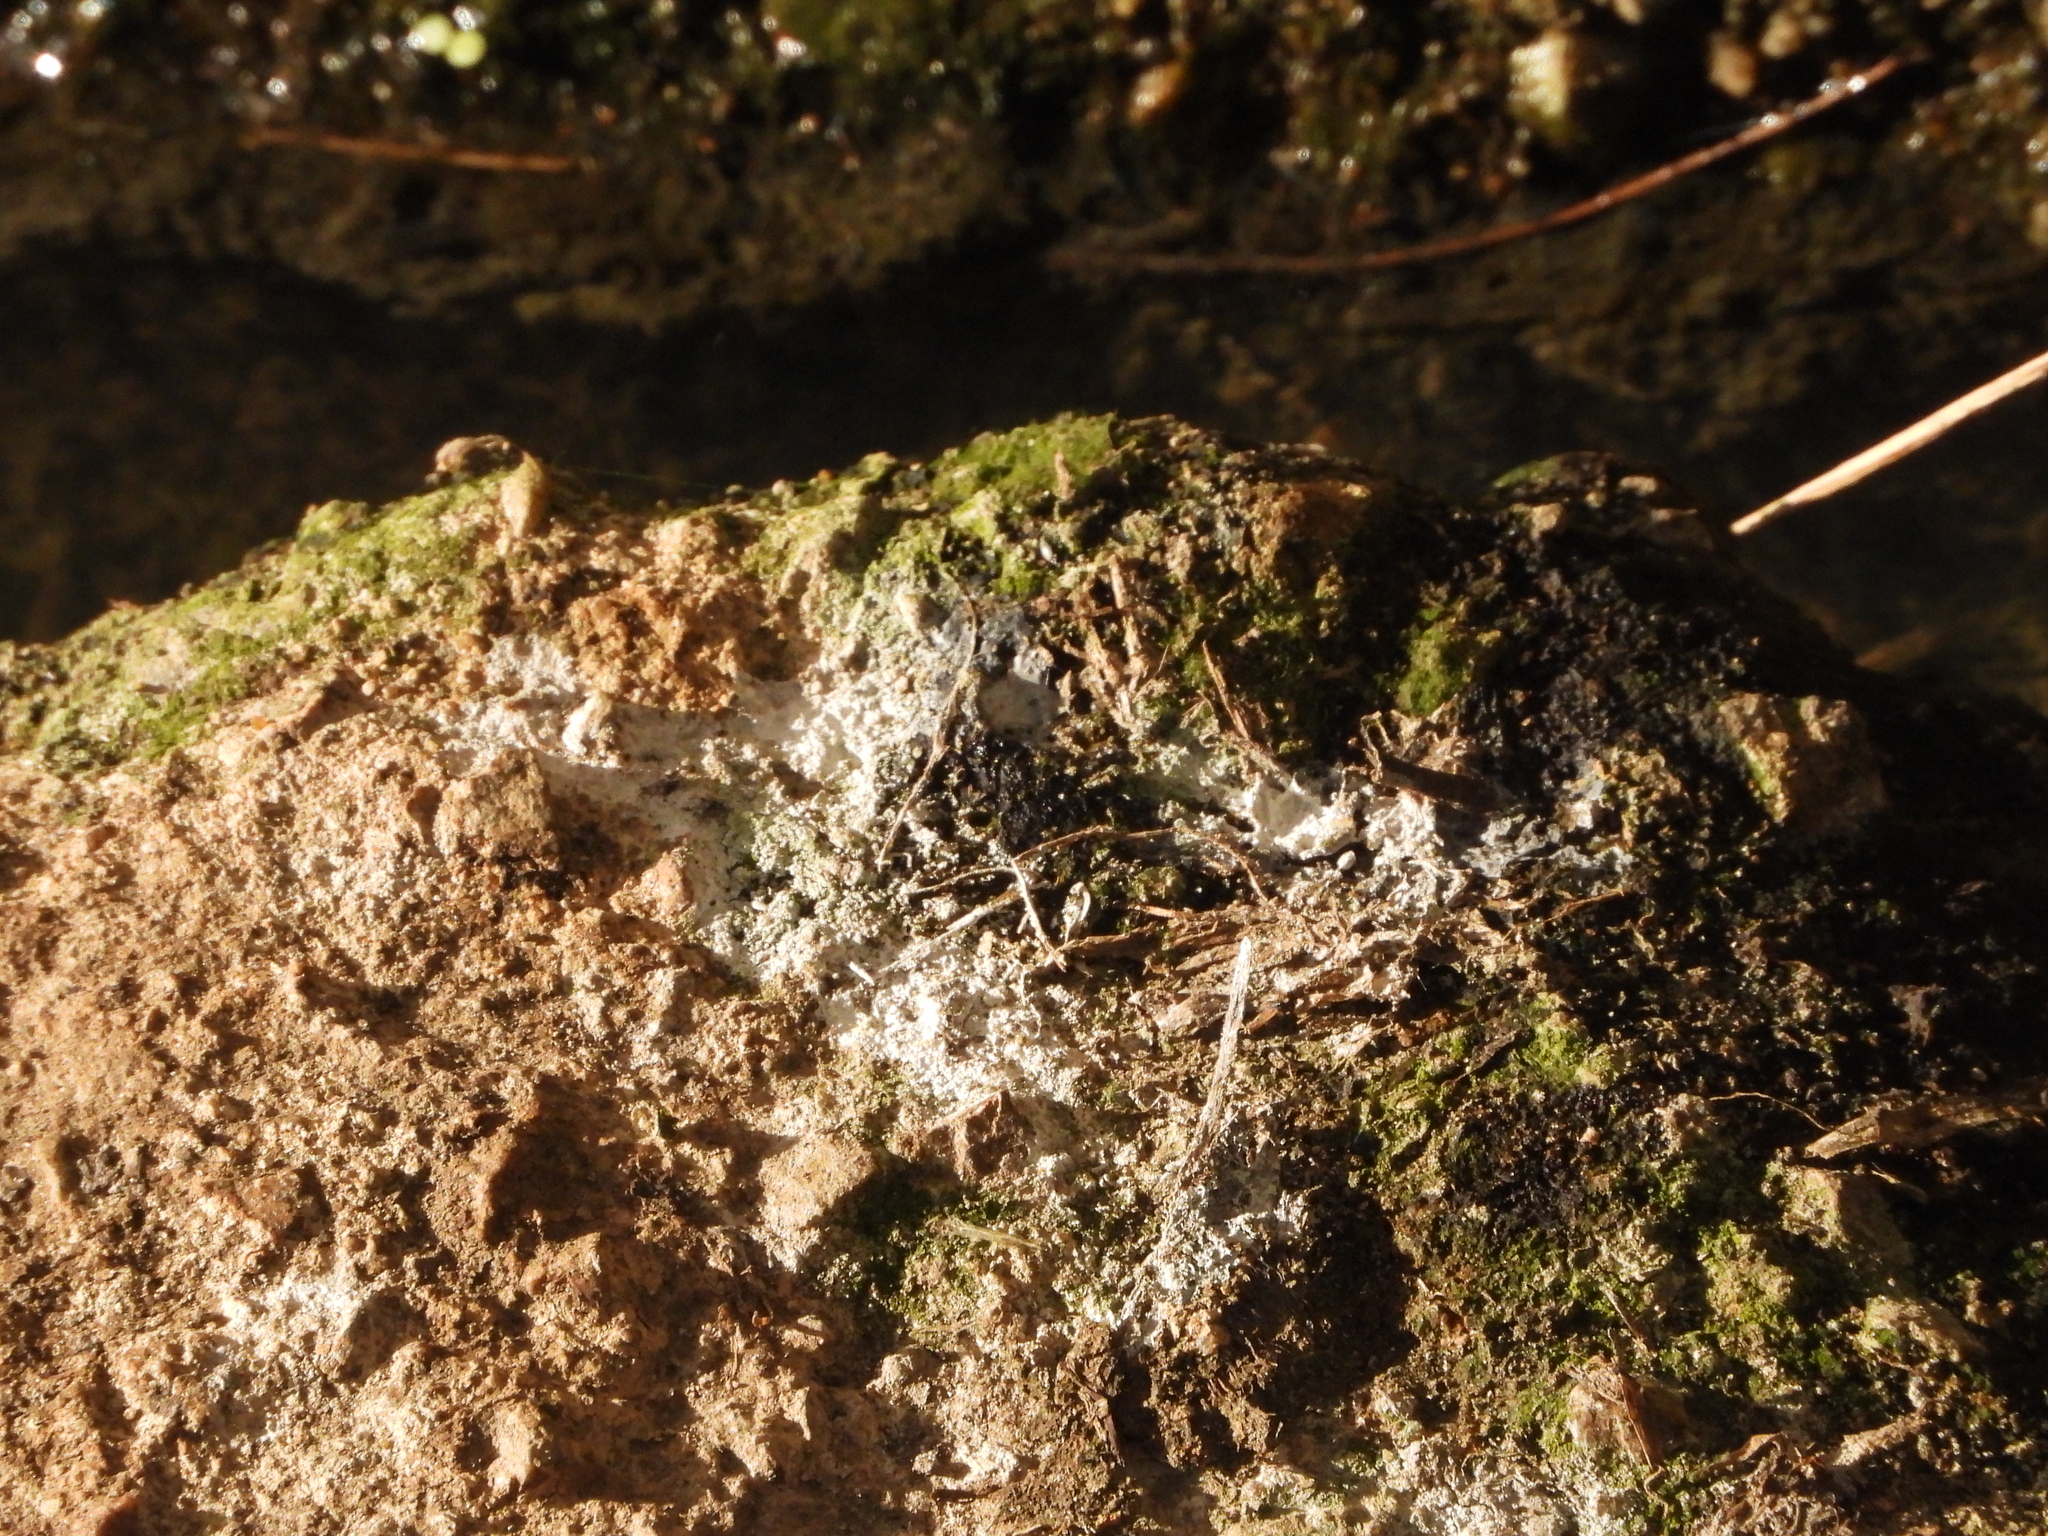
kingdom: Animalia
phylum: Chordata
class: Mammalia
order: Carnivora
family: Mustelidae
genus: Lutra
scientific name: Lutra lutra
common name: European otter
